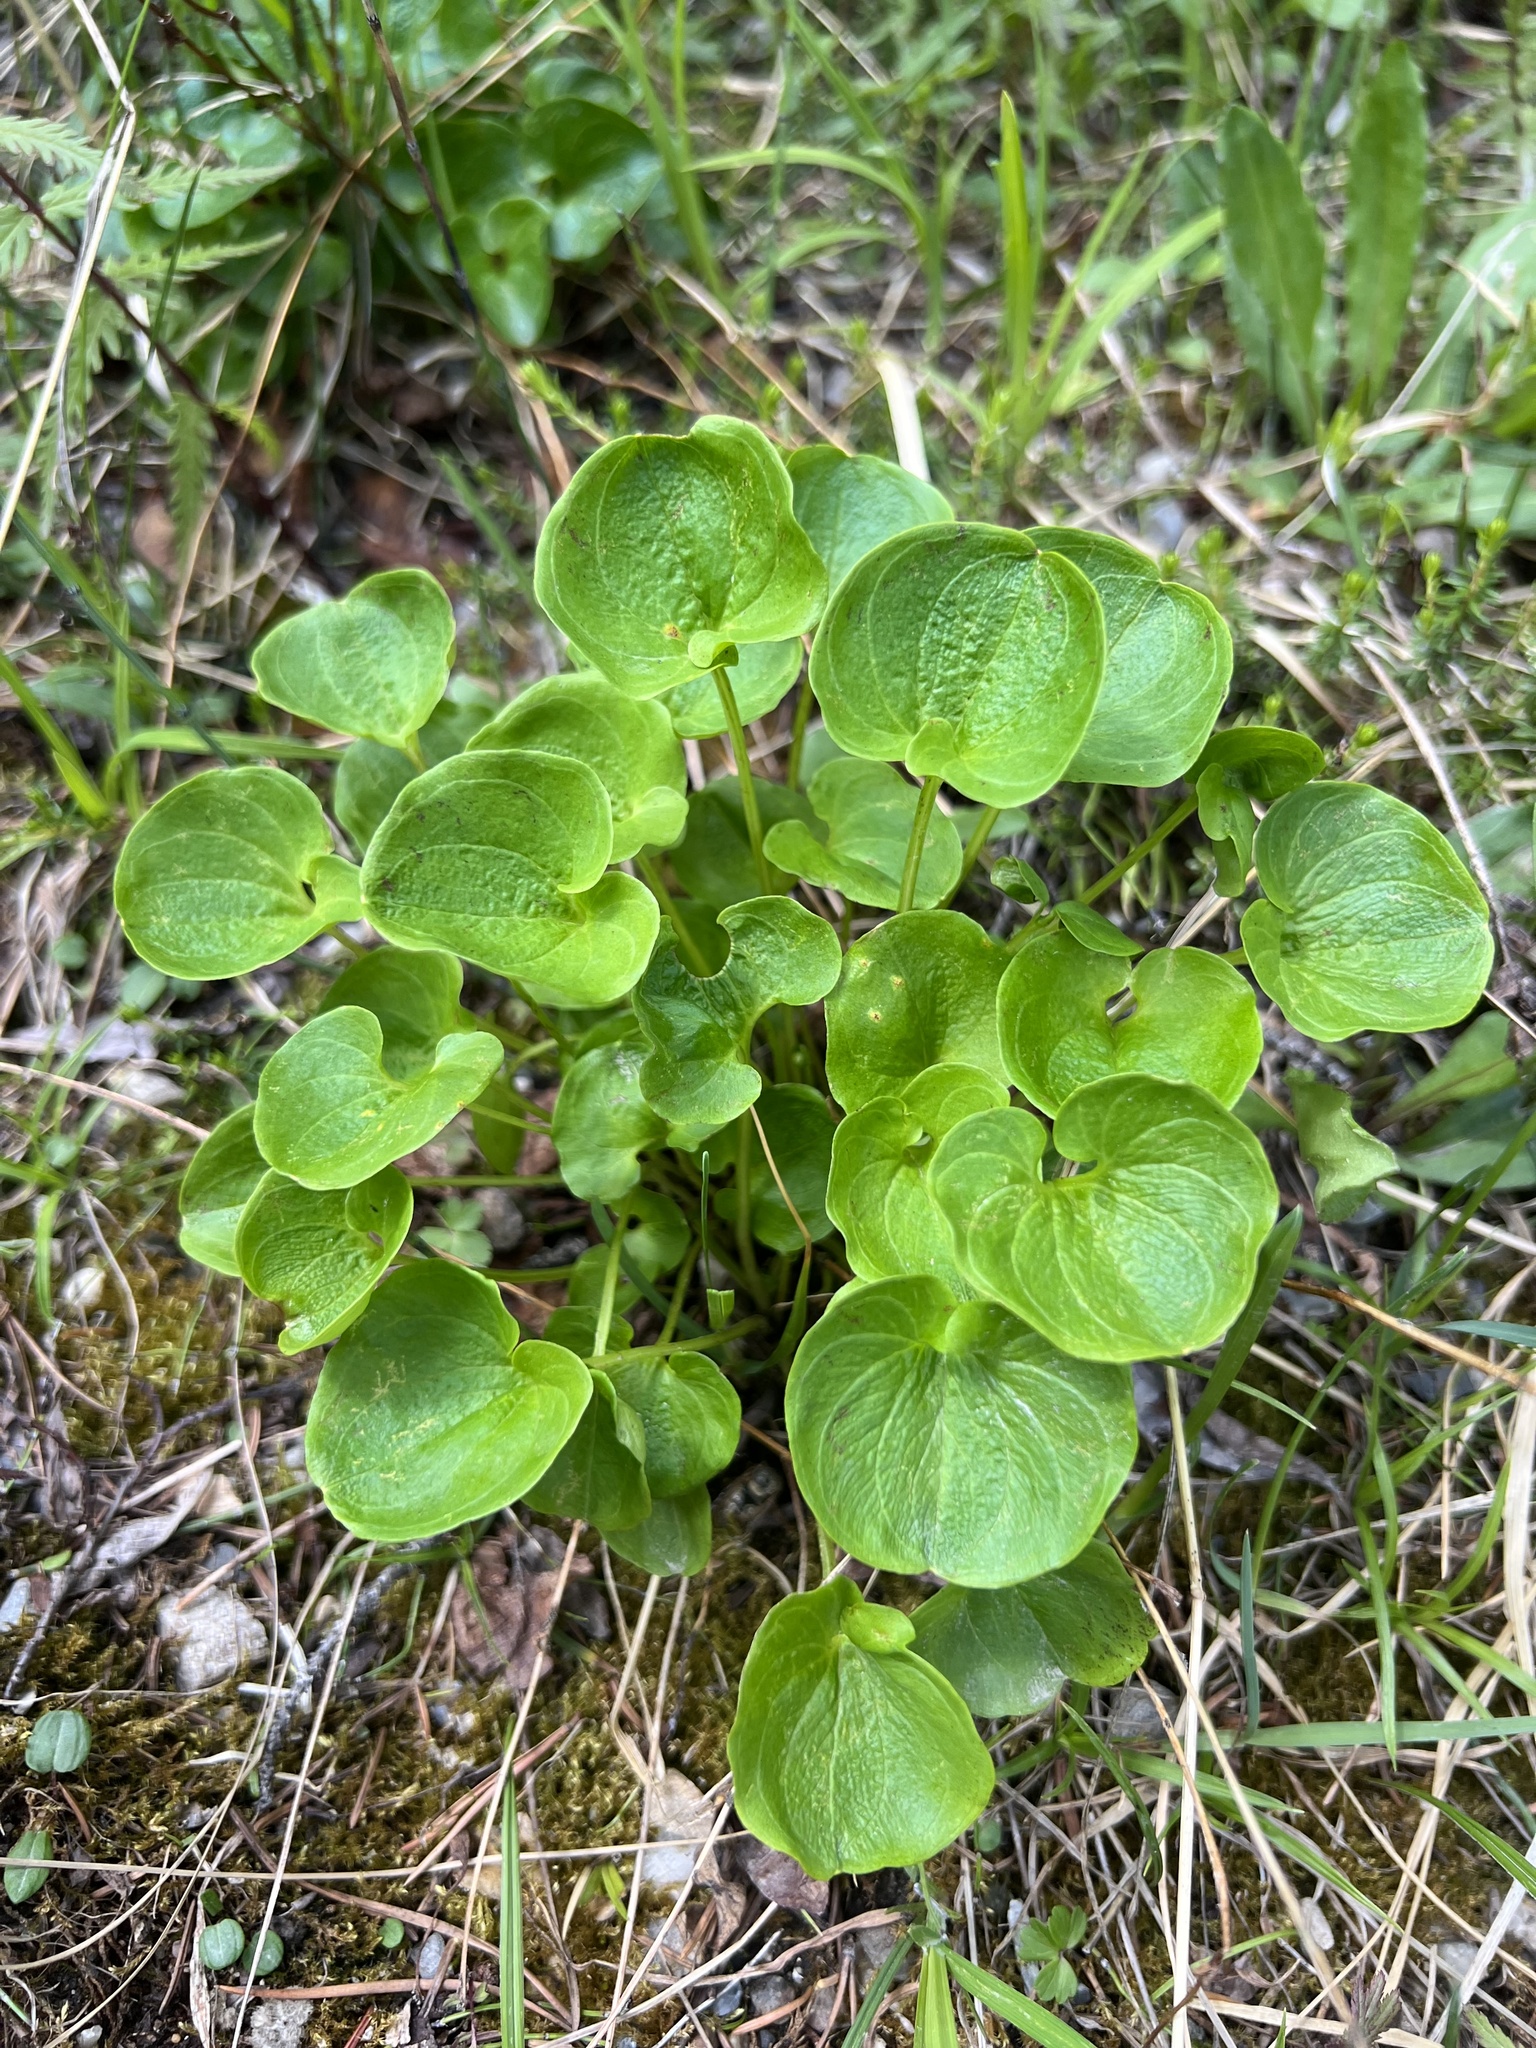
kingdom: Plantae
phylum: Tracheophyta
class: Magnoliopsida
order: Celastrales
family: Parnassiaceae
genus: Parnassia
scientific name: Parnassia fimbriata
